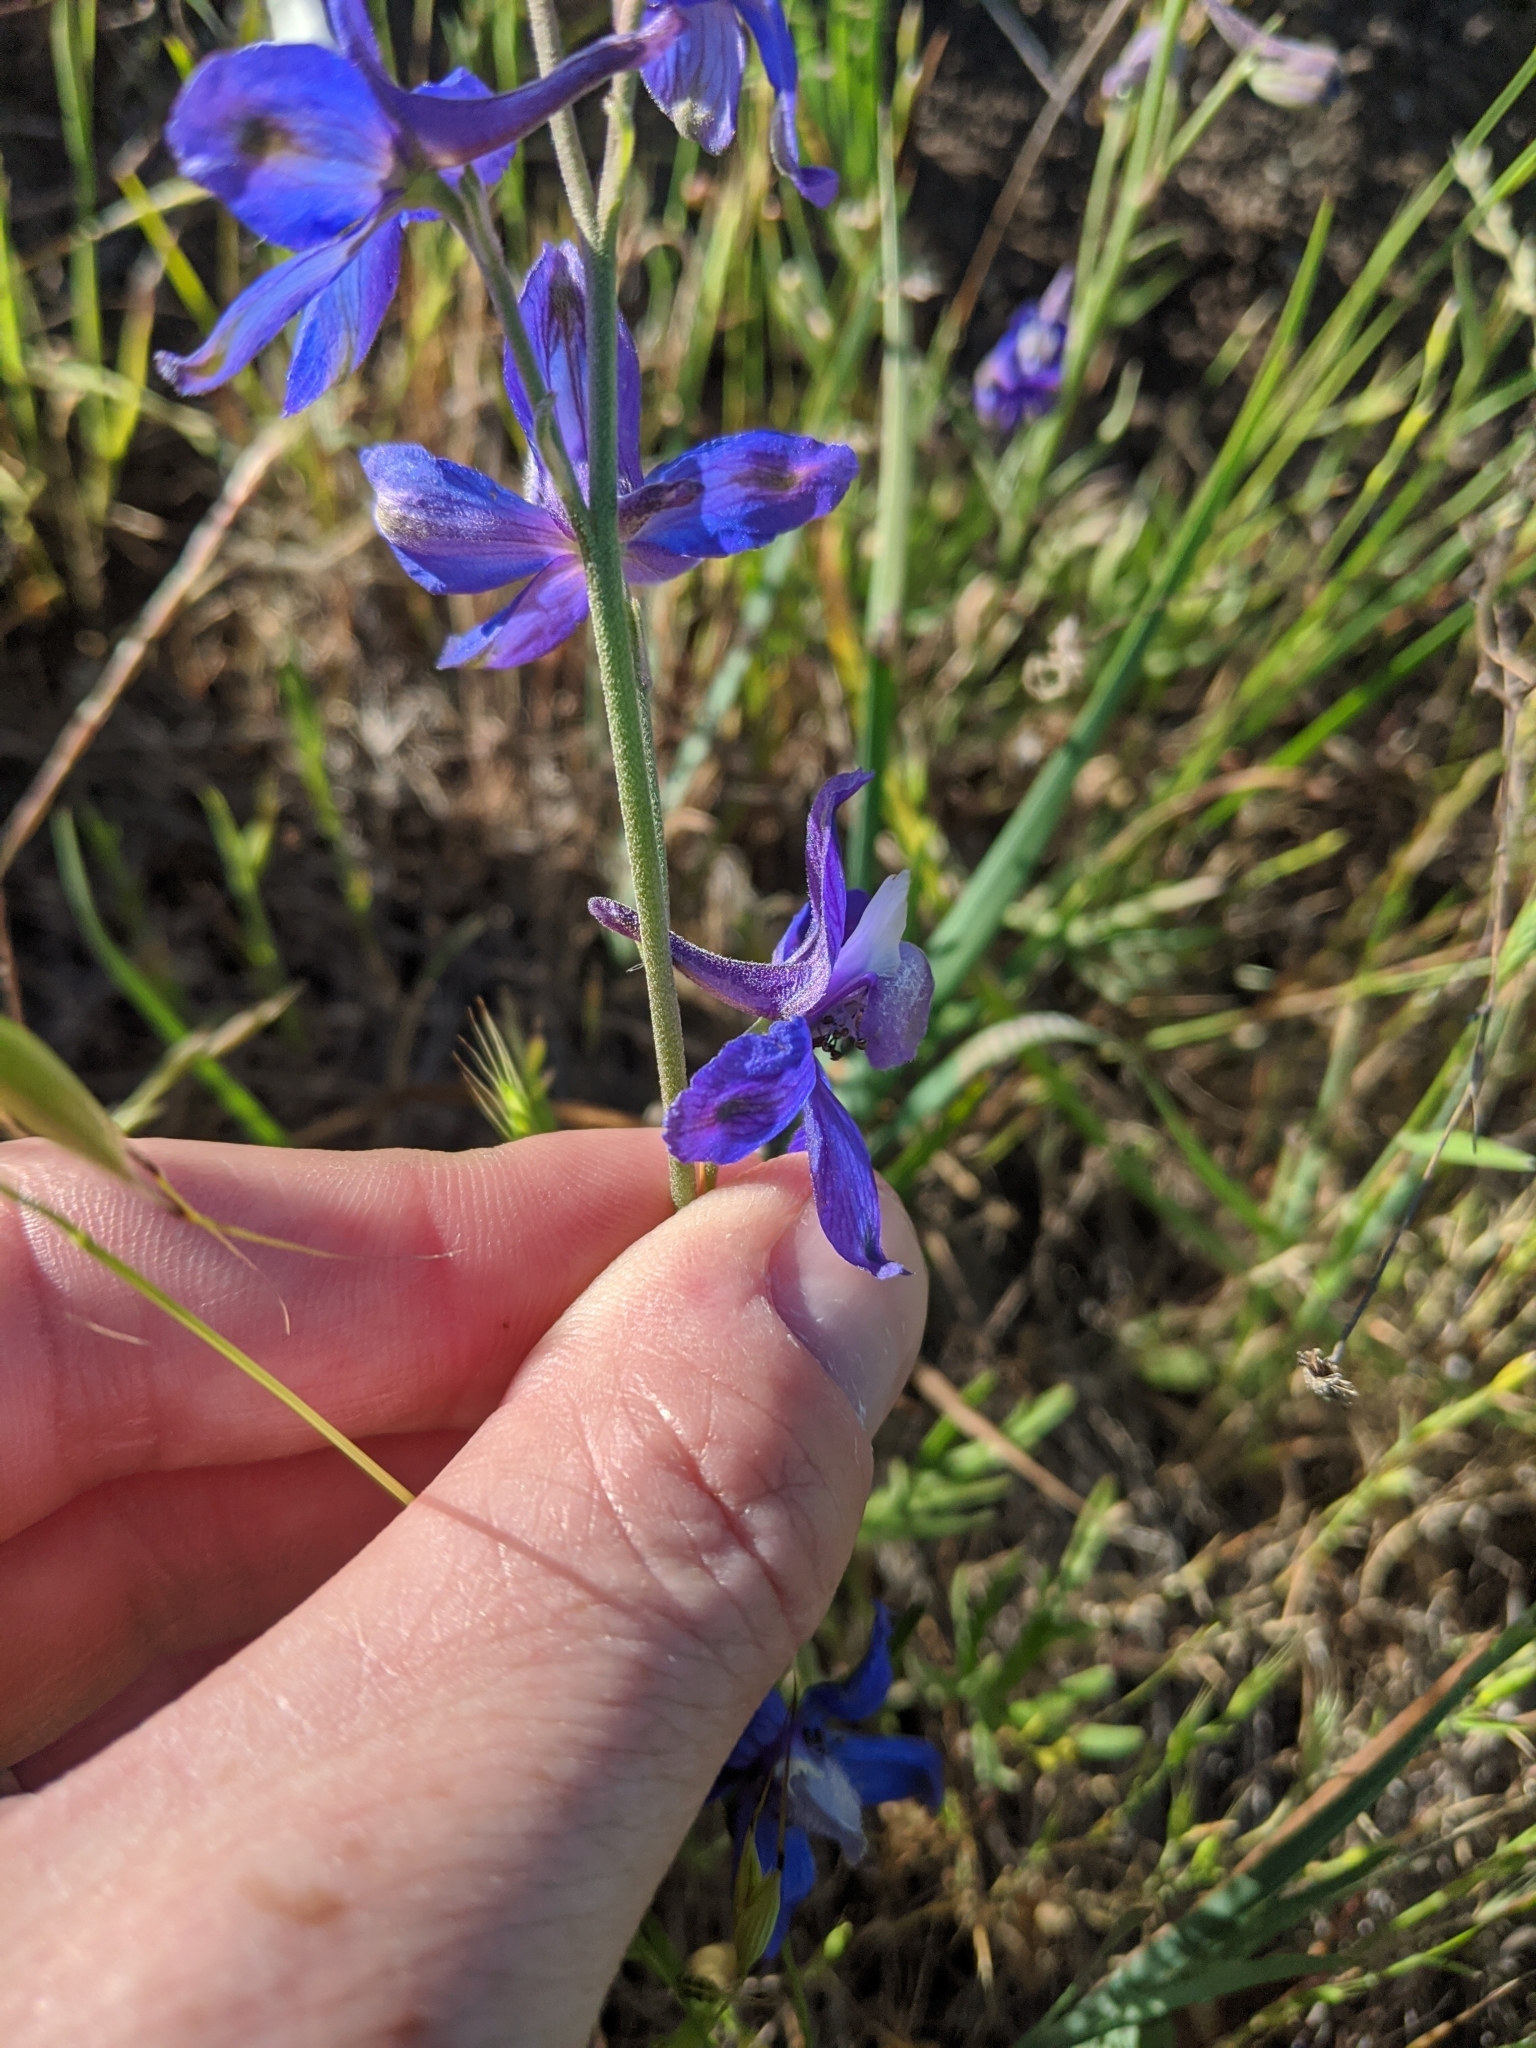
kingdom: Plantae
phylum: Tracheophyta
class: Magnoliopsida
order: Ranunculales
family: Ranunculaceae
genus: Delphinium
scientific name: Delphinium parryi
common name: Parry's larkspur
